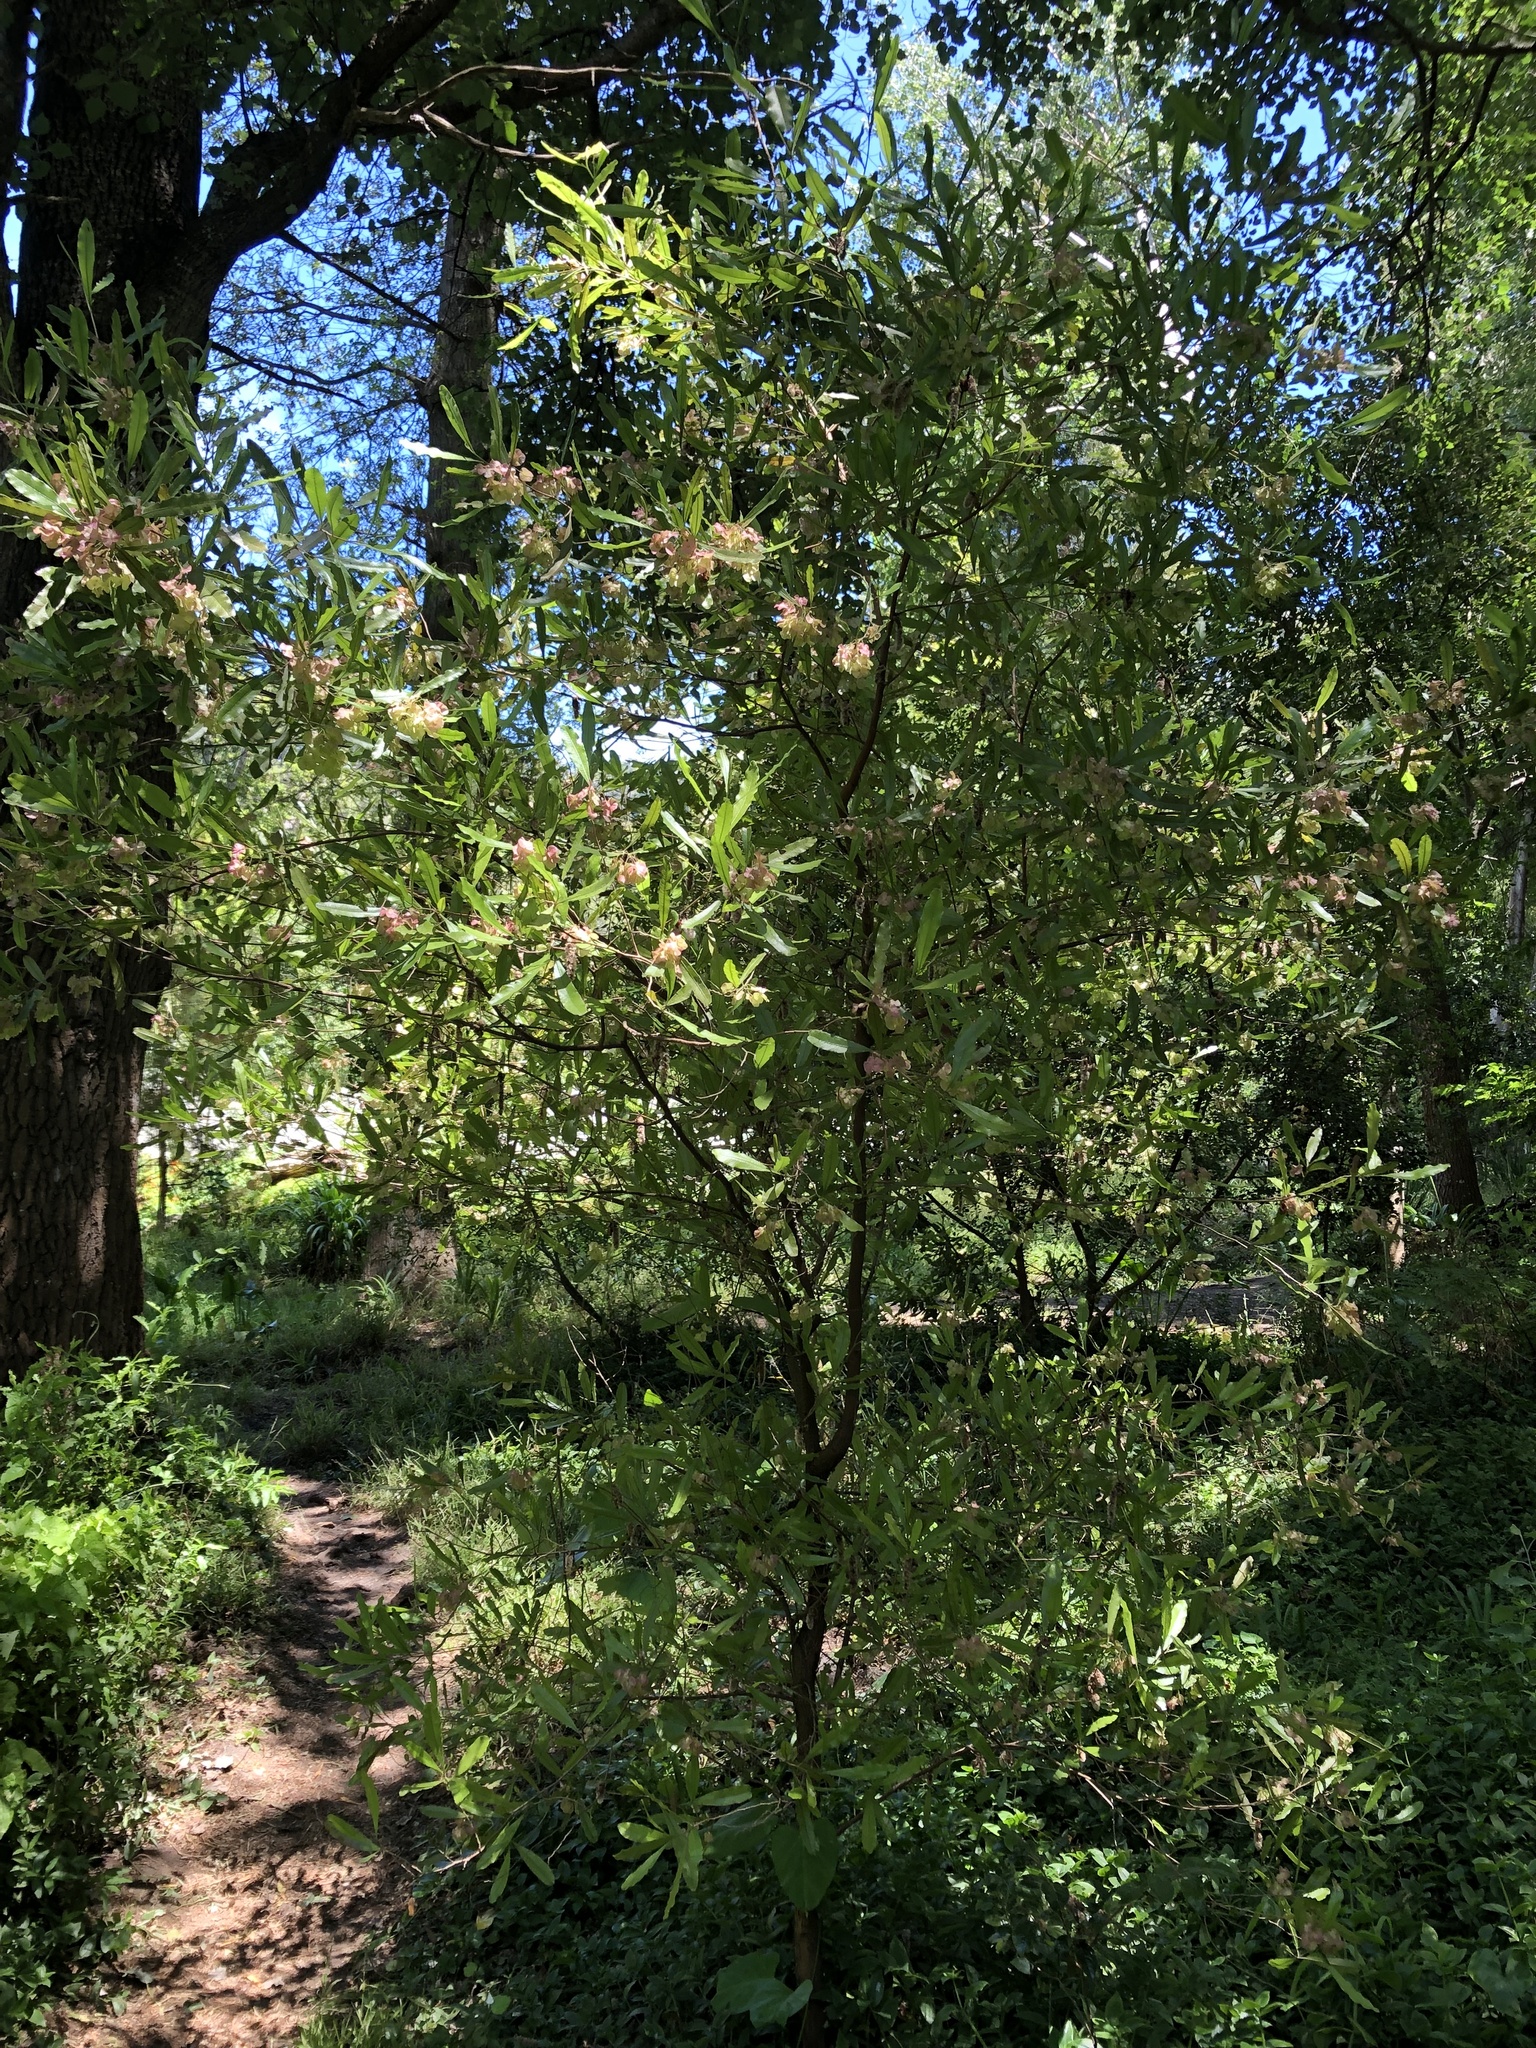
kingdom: Plantae
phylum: Tracheophyta
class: Magnoliopsida
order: Sapindales
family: Sapindaceae
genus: Dodonaea
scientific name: Dodonaea viscosa
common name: Hopbush
